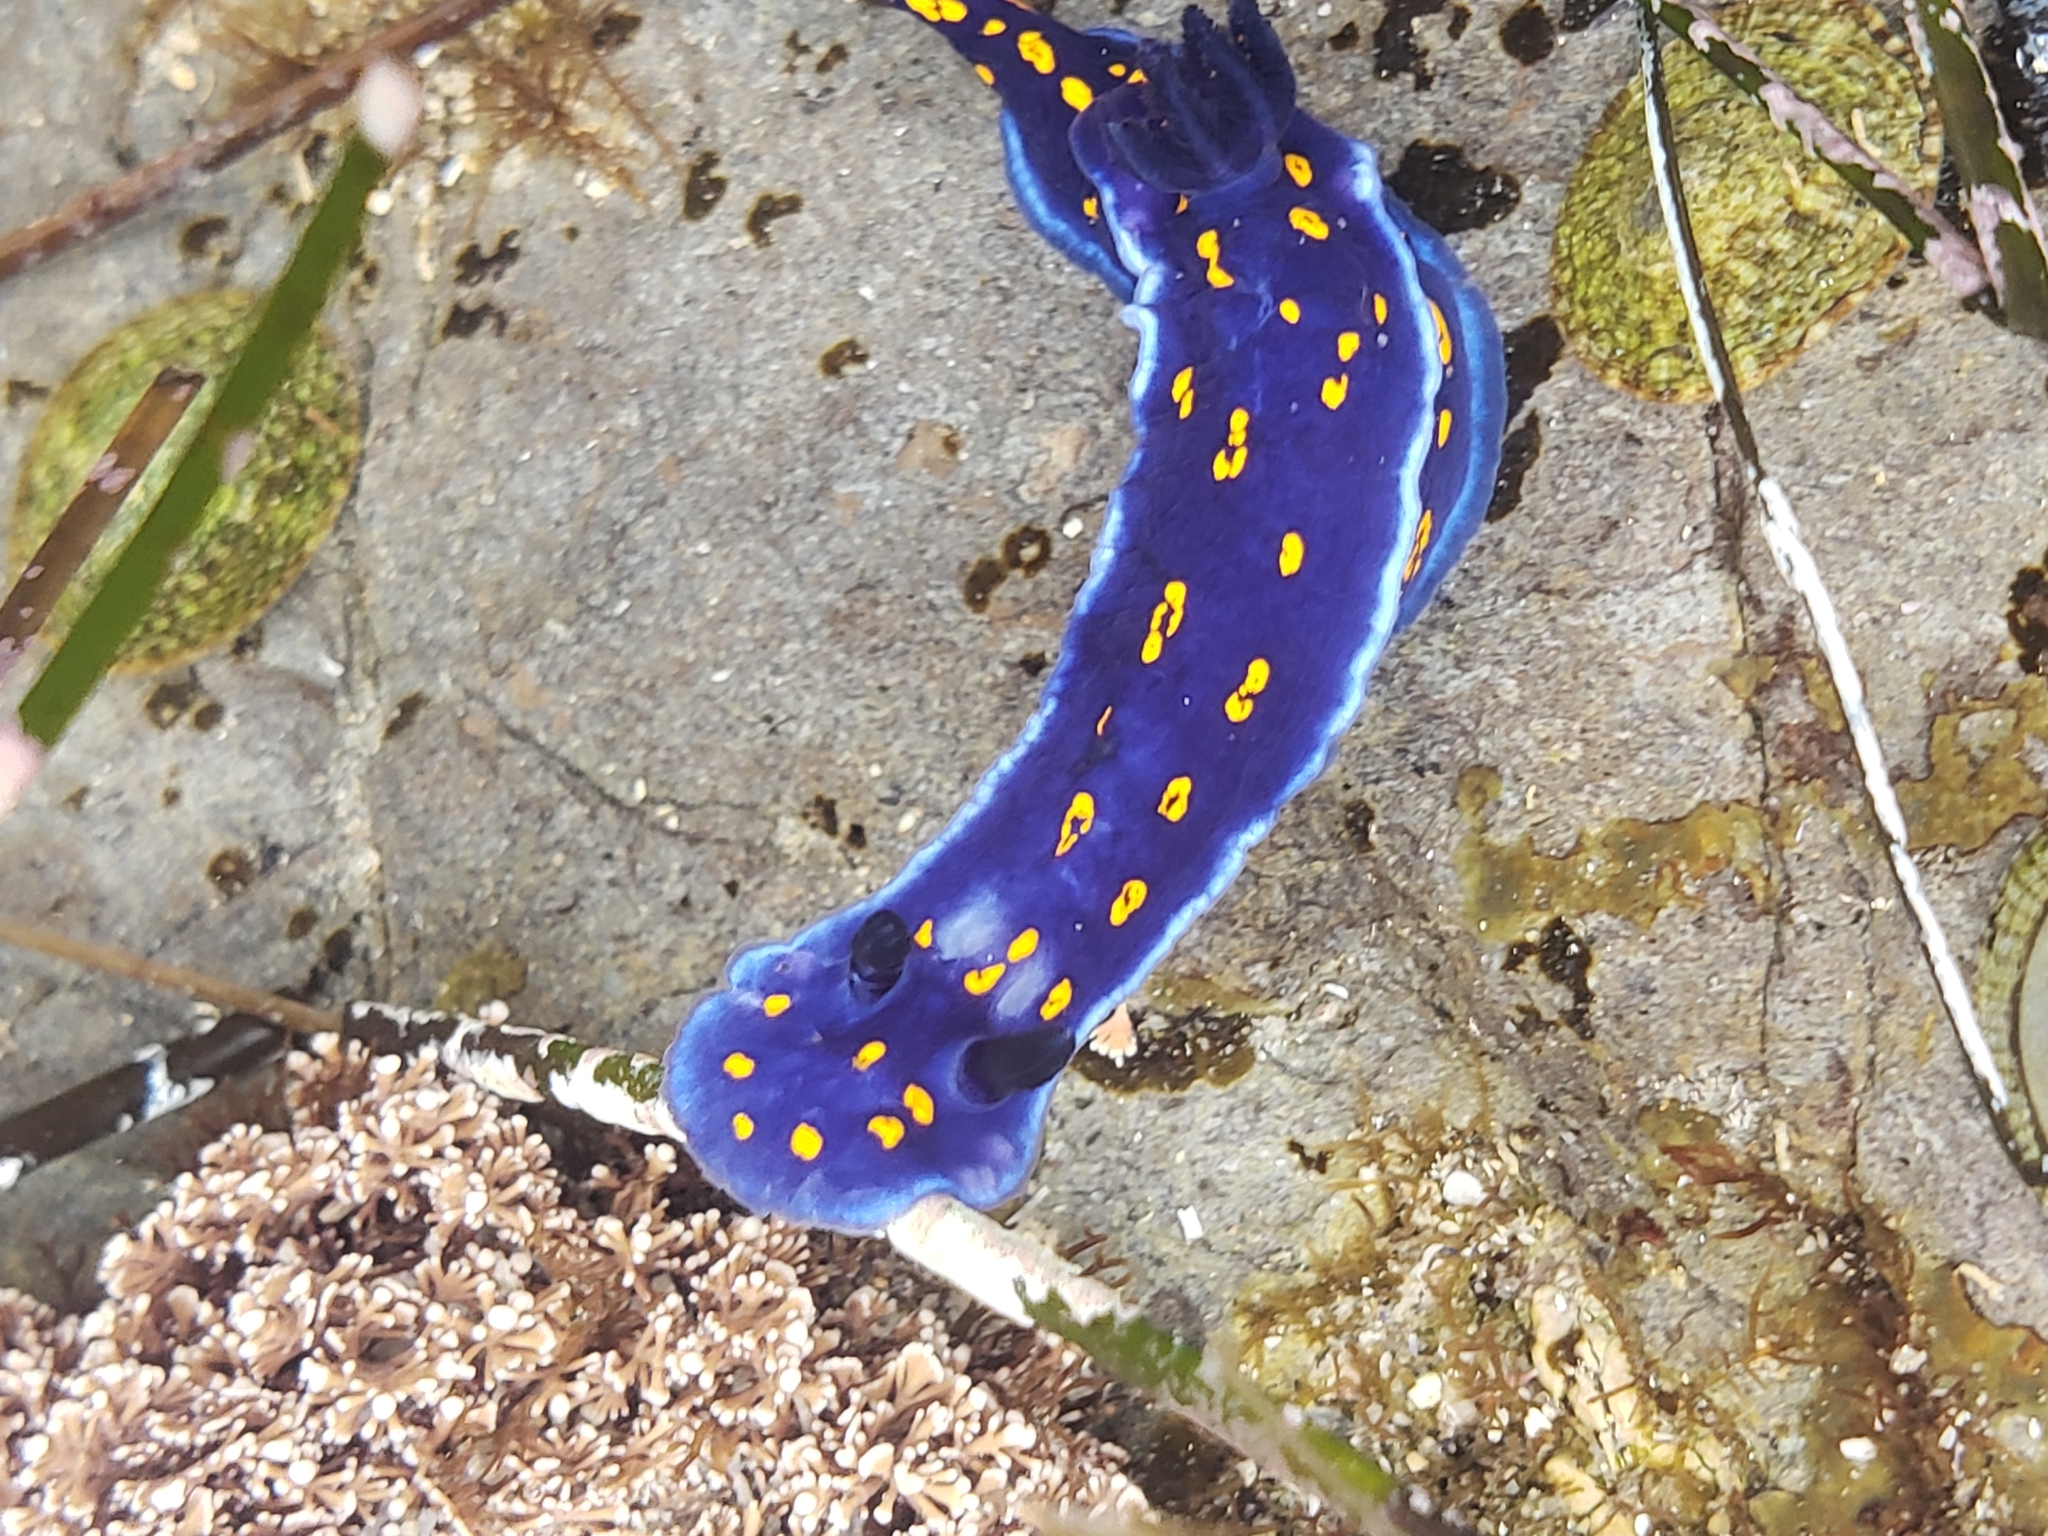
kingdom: Animalia
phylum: Mollusca
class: Gastropoda
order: Nudibranchia
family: Chromodorididae
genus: Felimare
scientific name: Felimare californiensis
